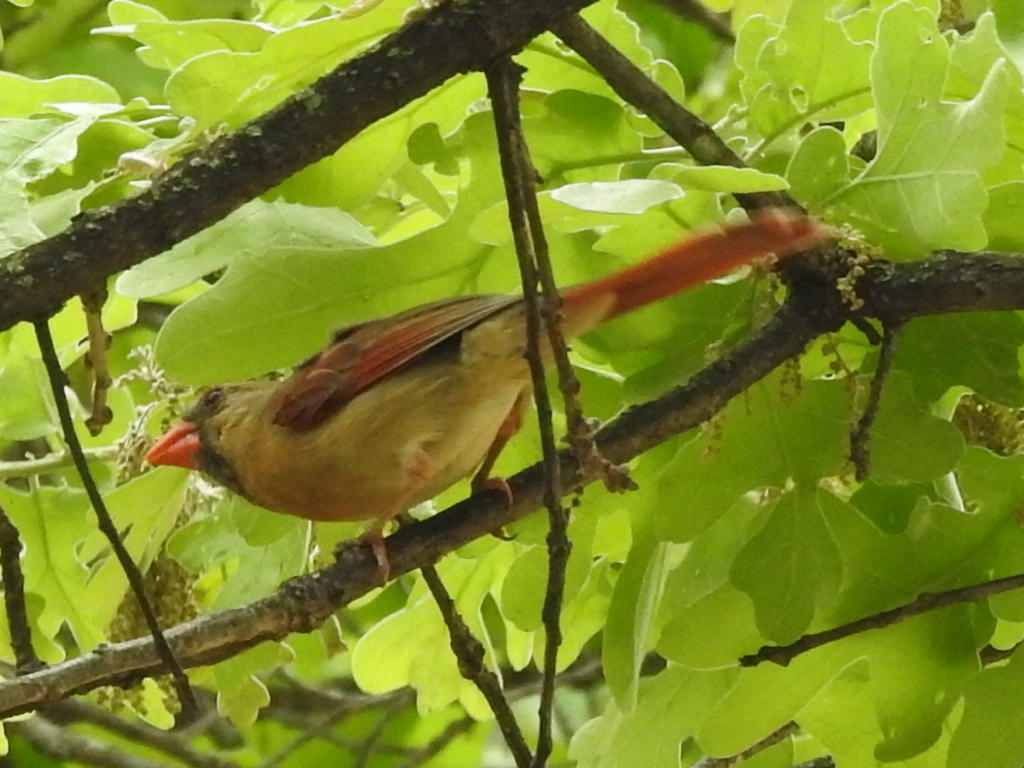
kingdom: Animalia
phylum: Chordata
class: Aves
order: Passeriformes
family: Cardinalidae
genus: Cardinalis
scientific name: Cardinalis cardinalis
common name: Northern cardinal
